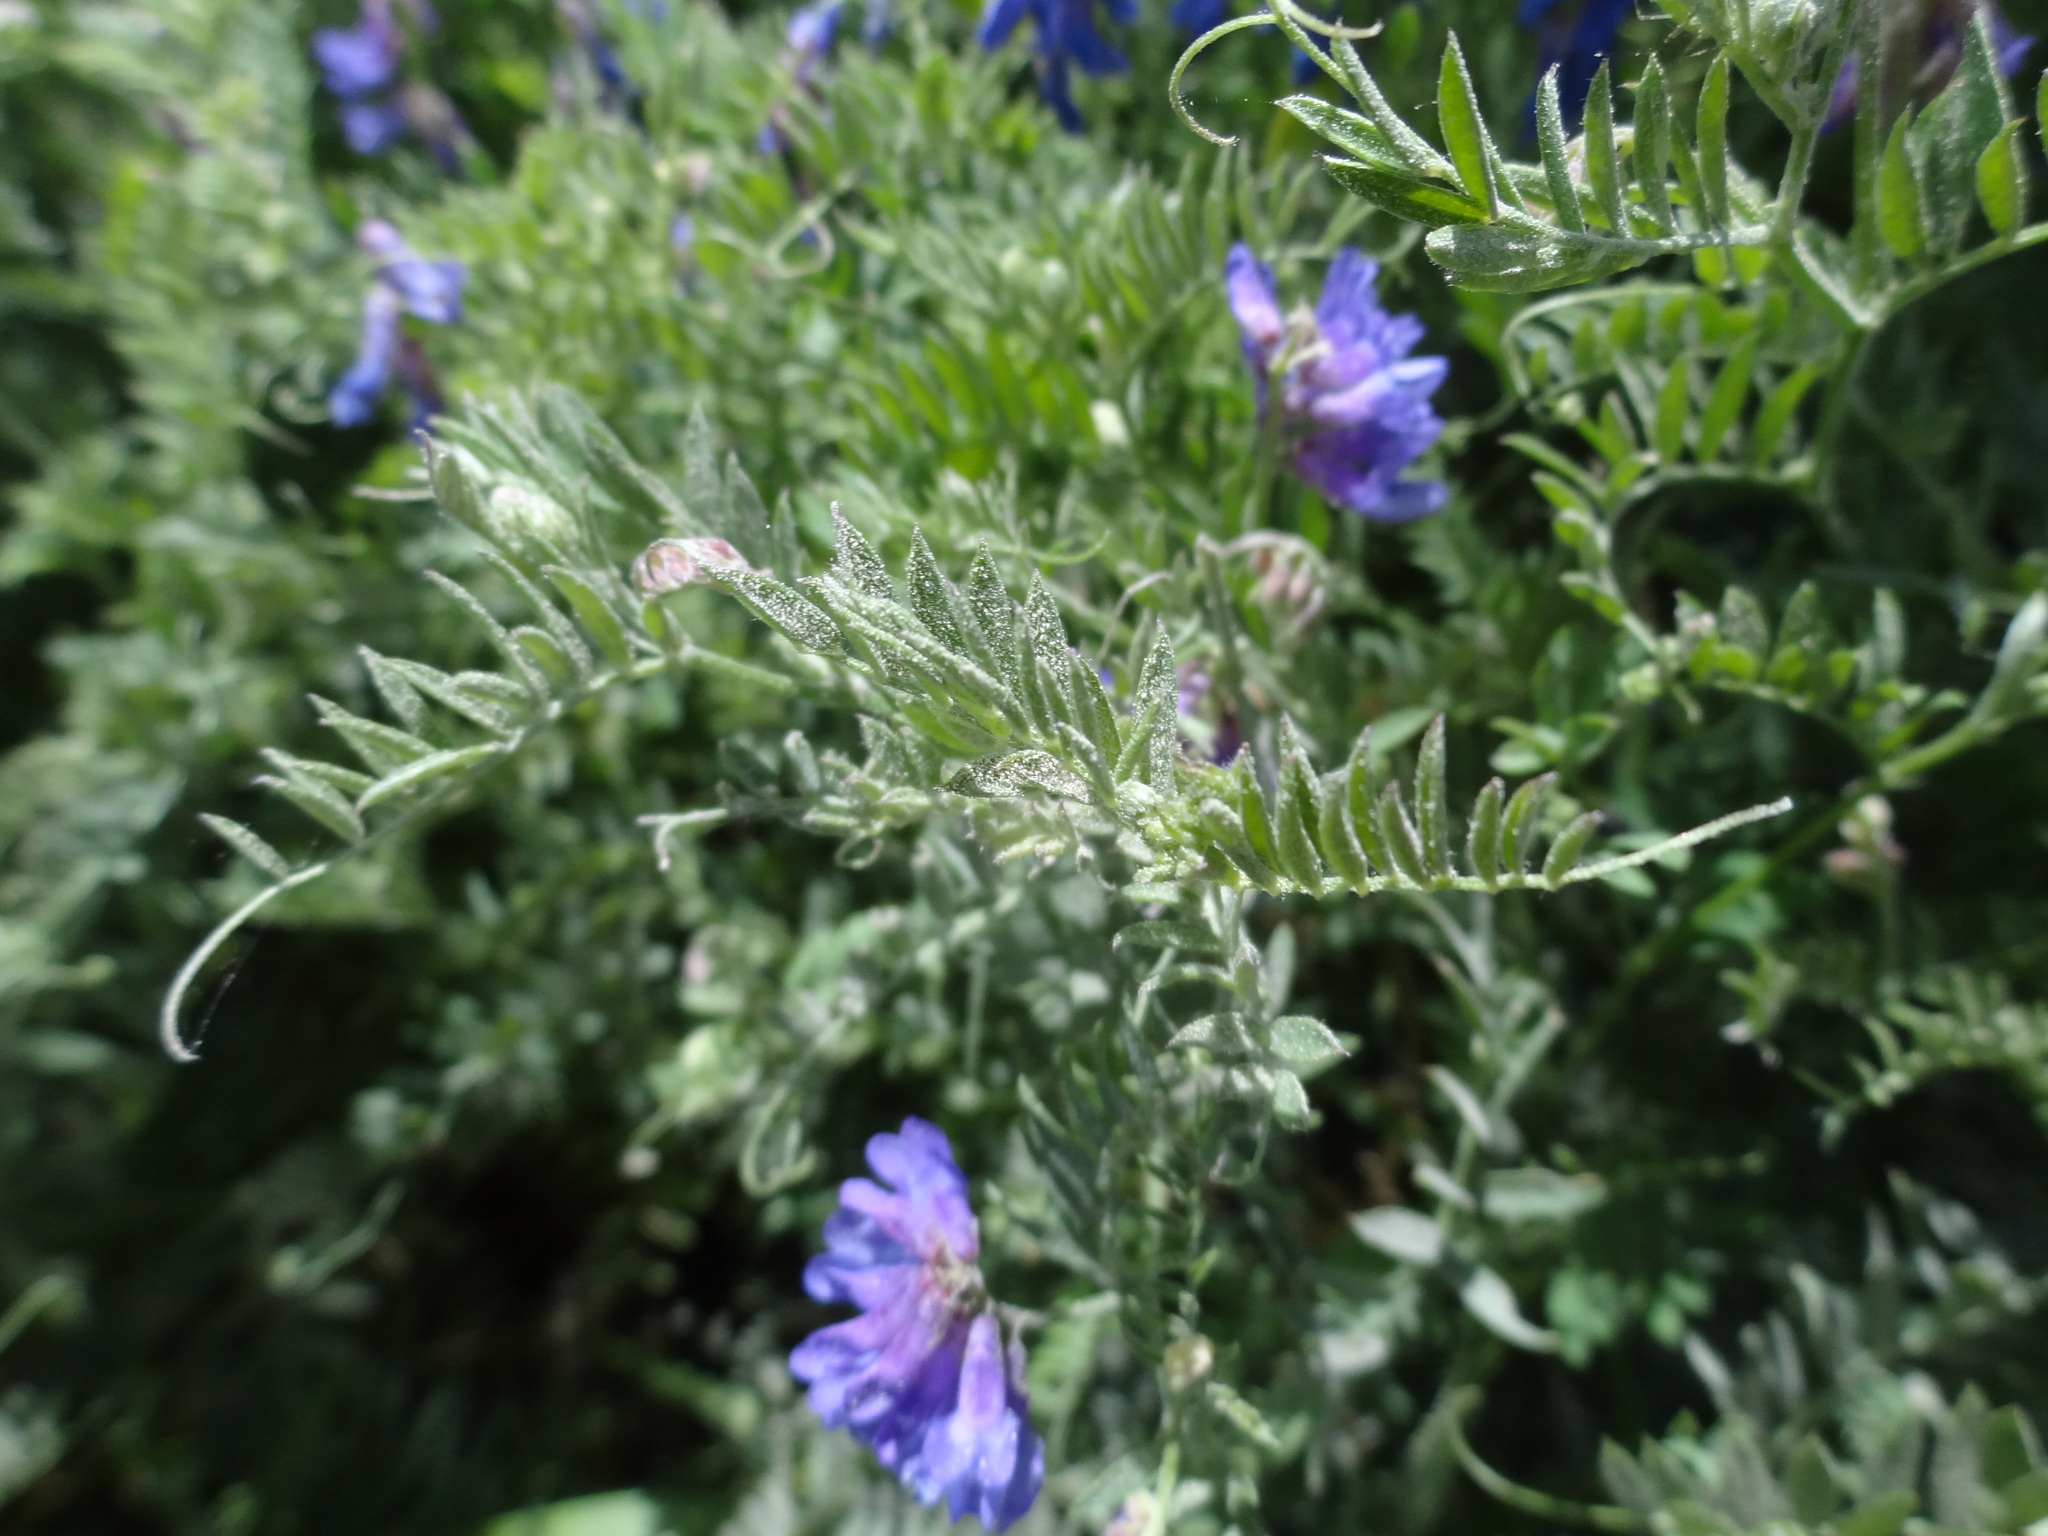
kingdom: Plantae
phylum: Tracheophyta
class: Magnoliopsida
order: Fabales
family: Fabaceae
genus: Vicia
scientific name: Vicia cracca
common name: Bird vetch
